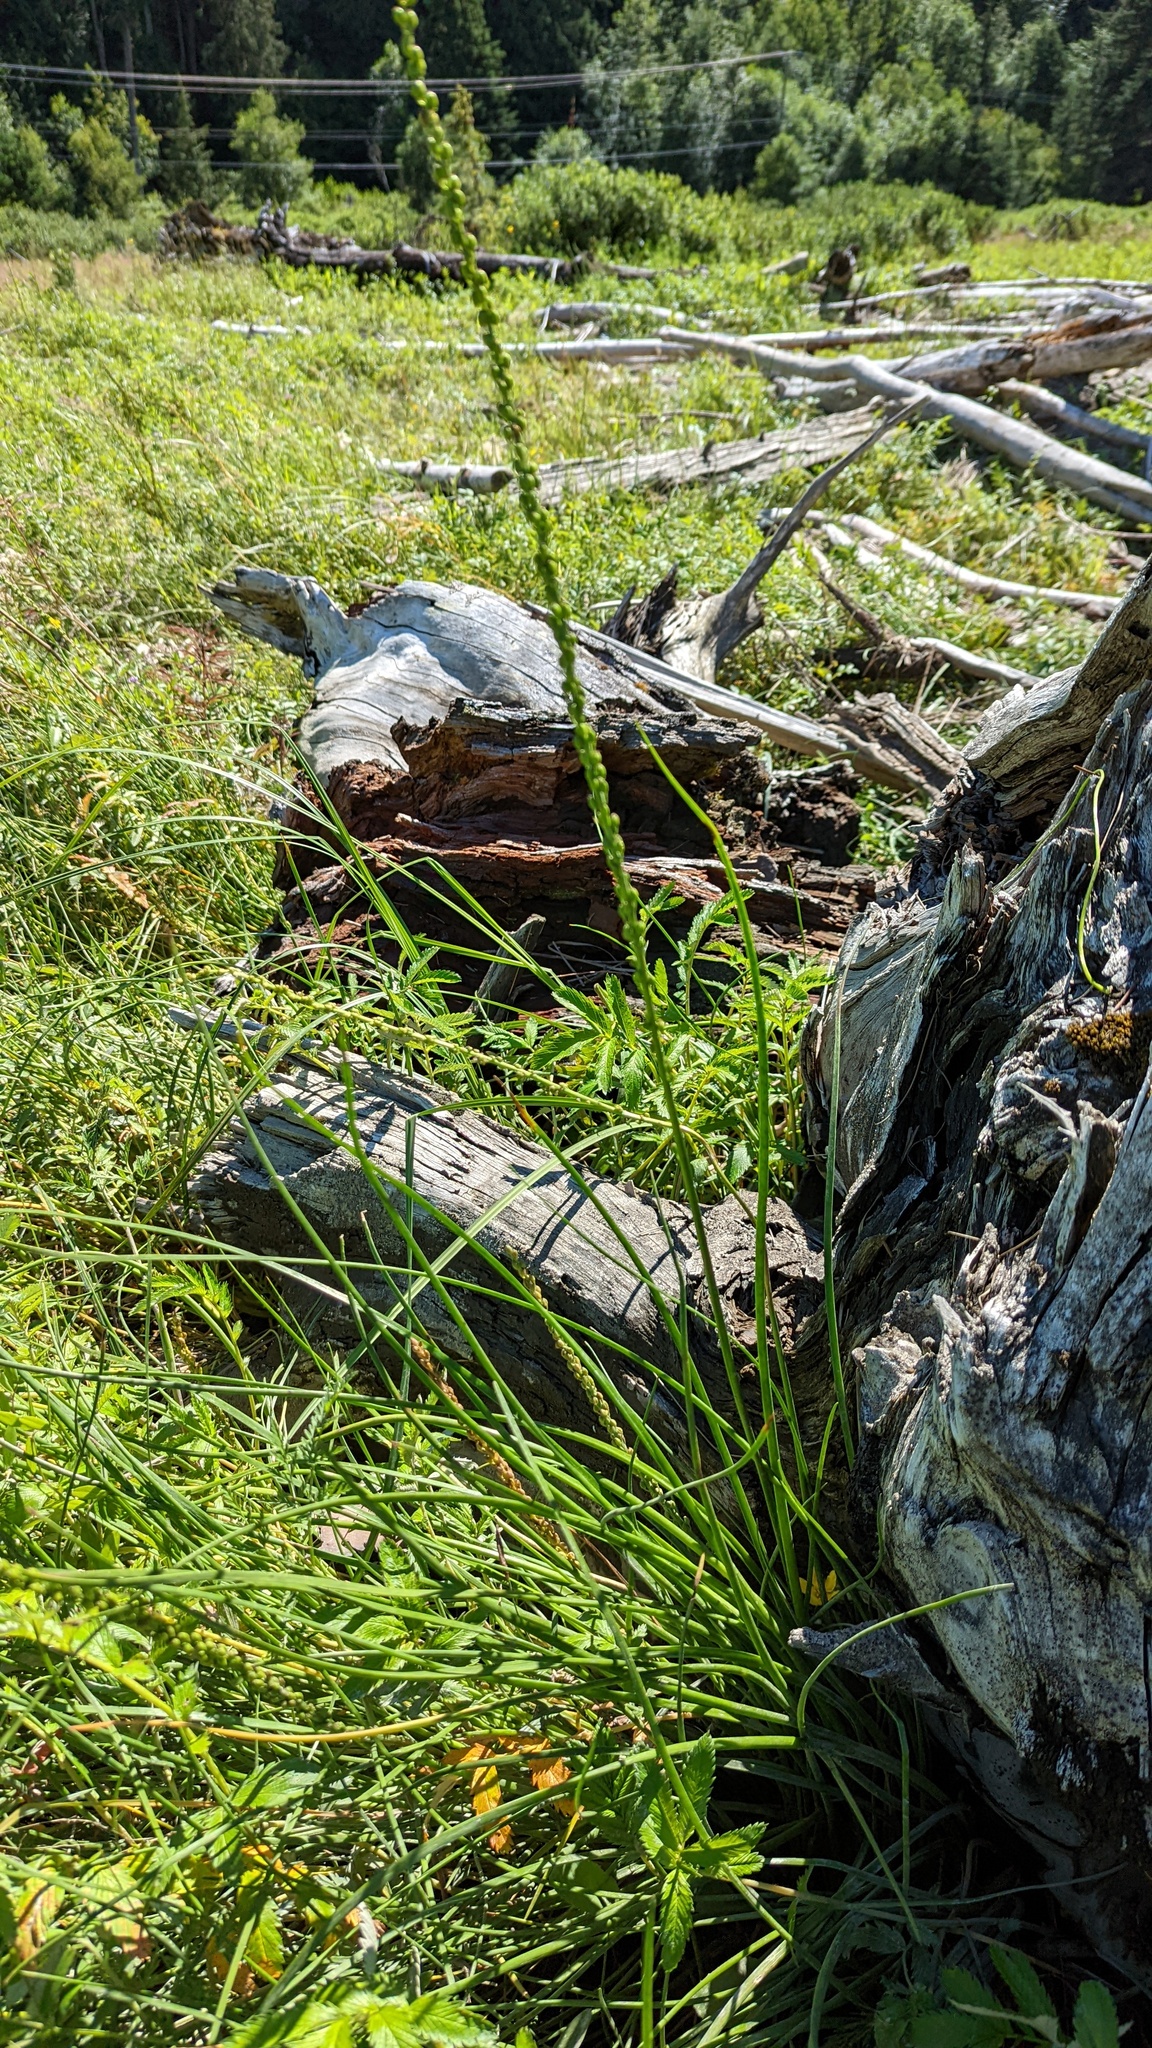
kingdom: Plantae
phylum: Tracheophyta
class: Liliopsida
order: Alismatales
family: Juncaginaceae
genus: Triglochin
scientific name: Triglochin maritima
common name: Sea arrowgrass
